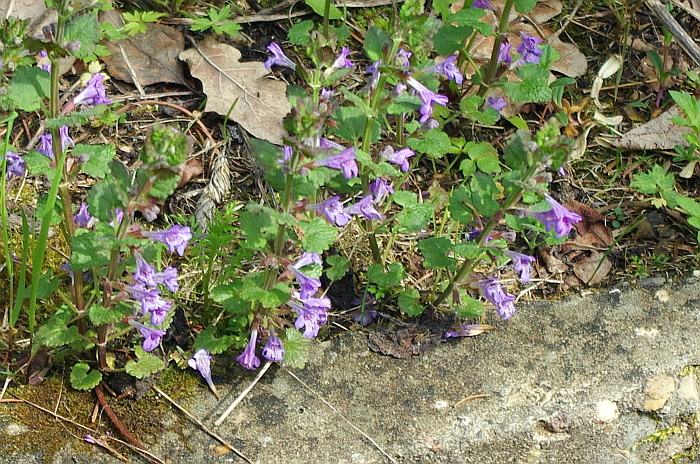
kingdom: Plantae
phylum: Tracheophyta
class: Magnoliopsida
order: Lamiales
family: Lamiaceae
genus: Glechoma
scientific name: Glechoma hederacea
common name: Ground ivy
